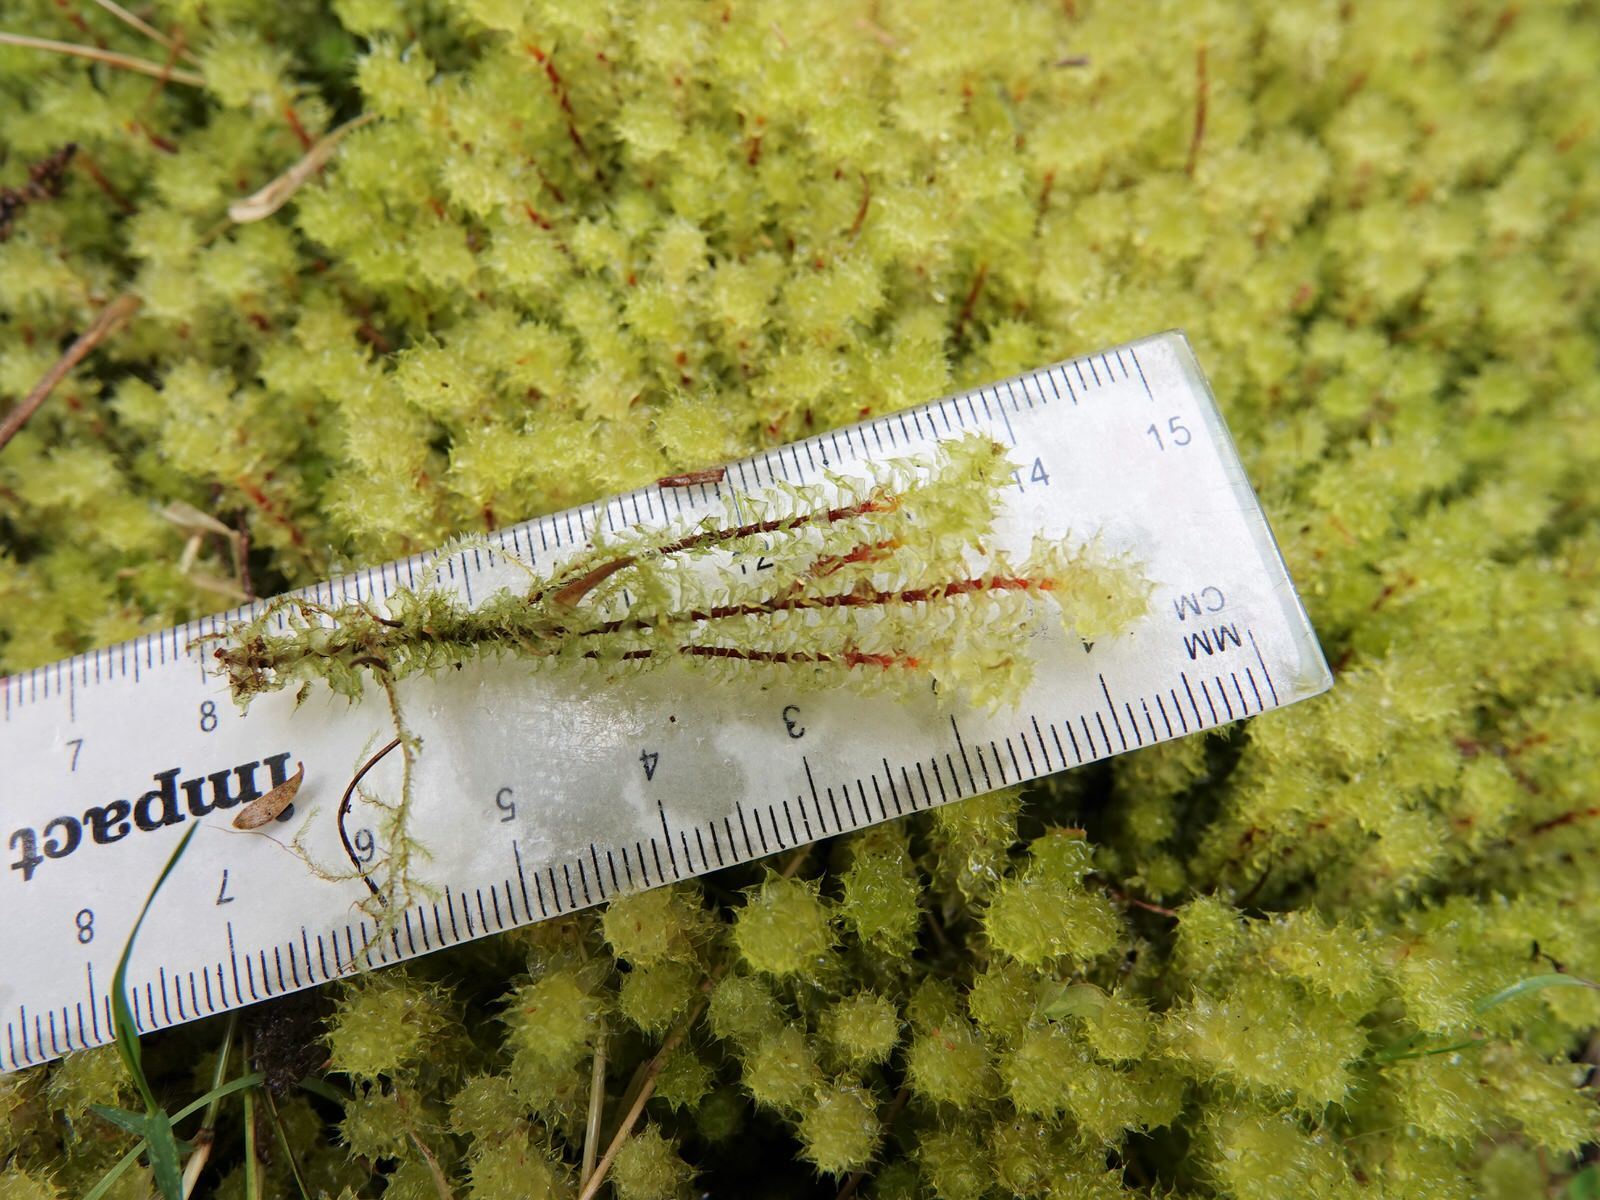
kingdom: Plantae
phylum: Bryophyta
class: Bryopsida
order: Ptychomniales
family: Ptychomniaceae
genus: Ptychomnion
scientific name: Ptychomnion aciculare
